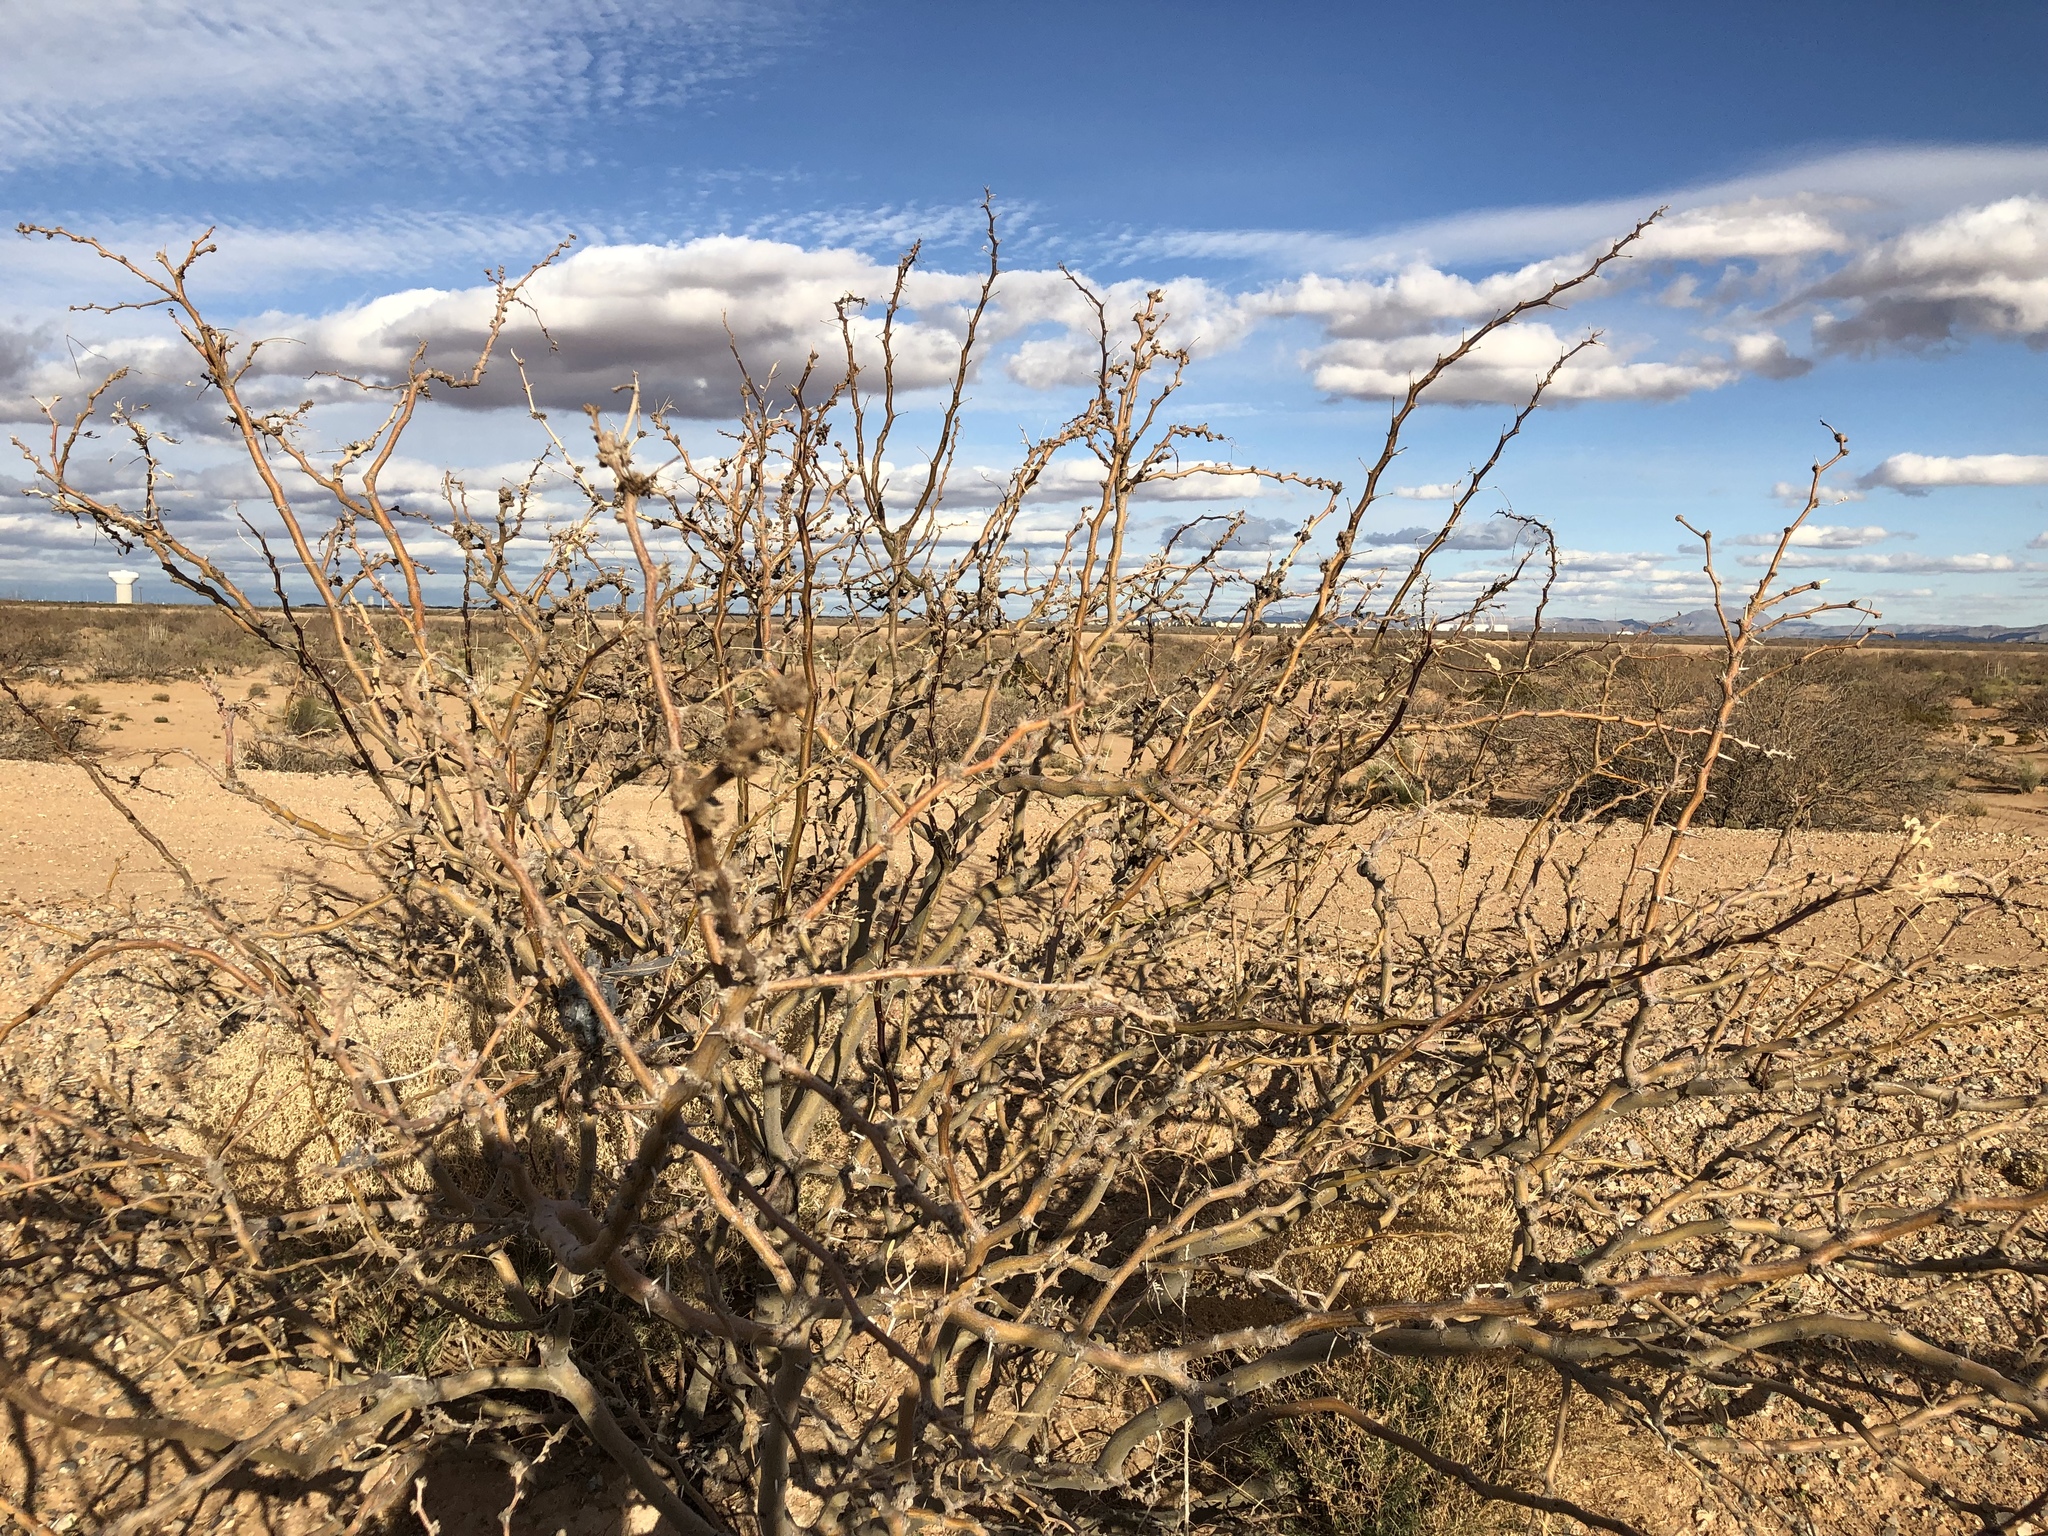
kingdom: Plantae
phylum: Tracheophyta
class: Magnoliopsida
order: Fabales
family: Fabaceae
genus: Prosopis
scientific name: Prosopis glandulosa
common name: Honey mesquite
